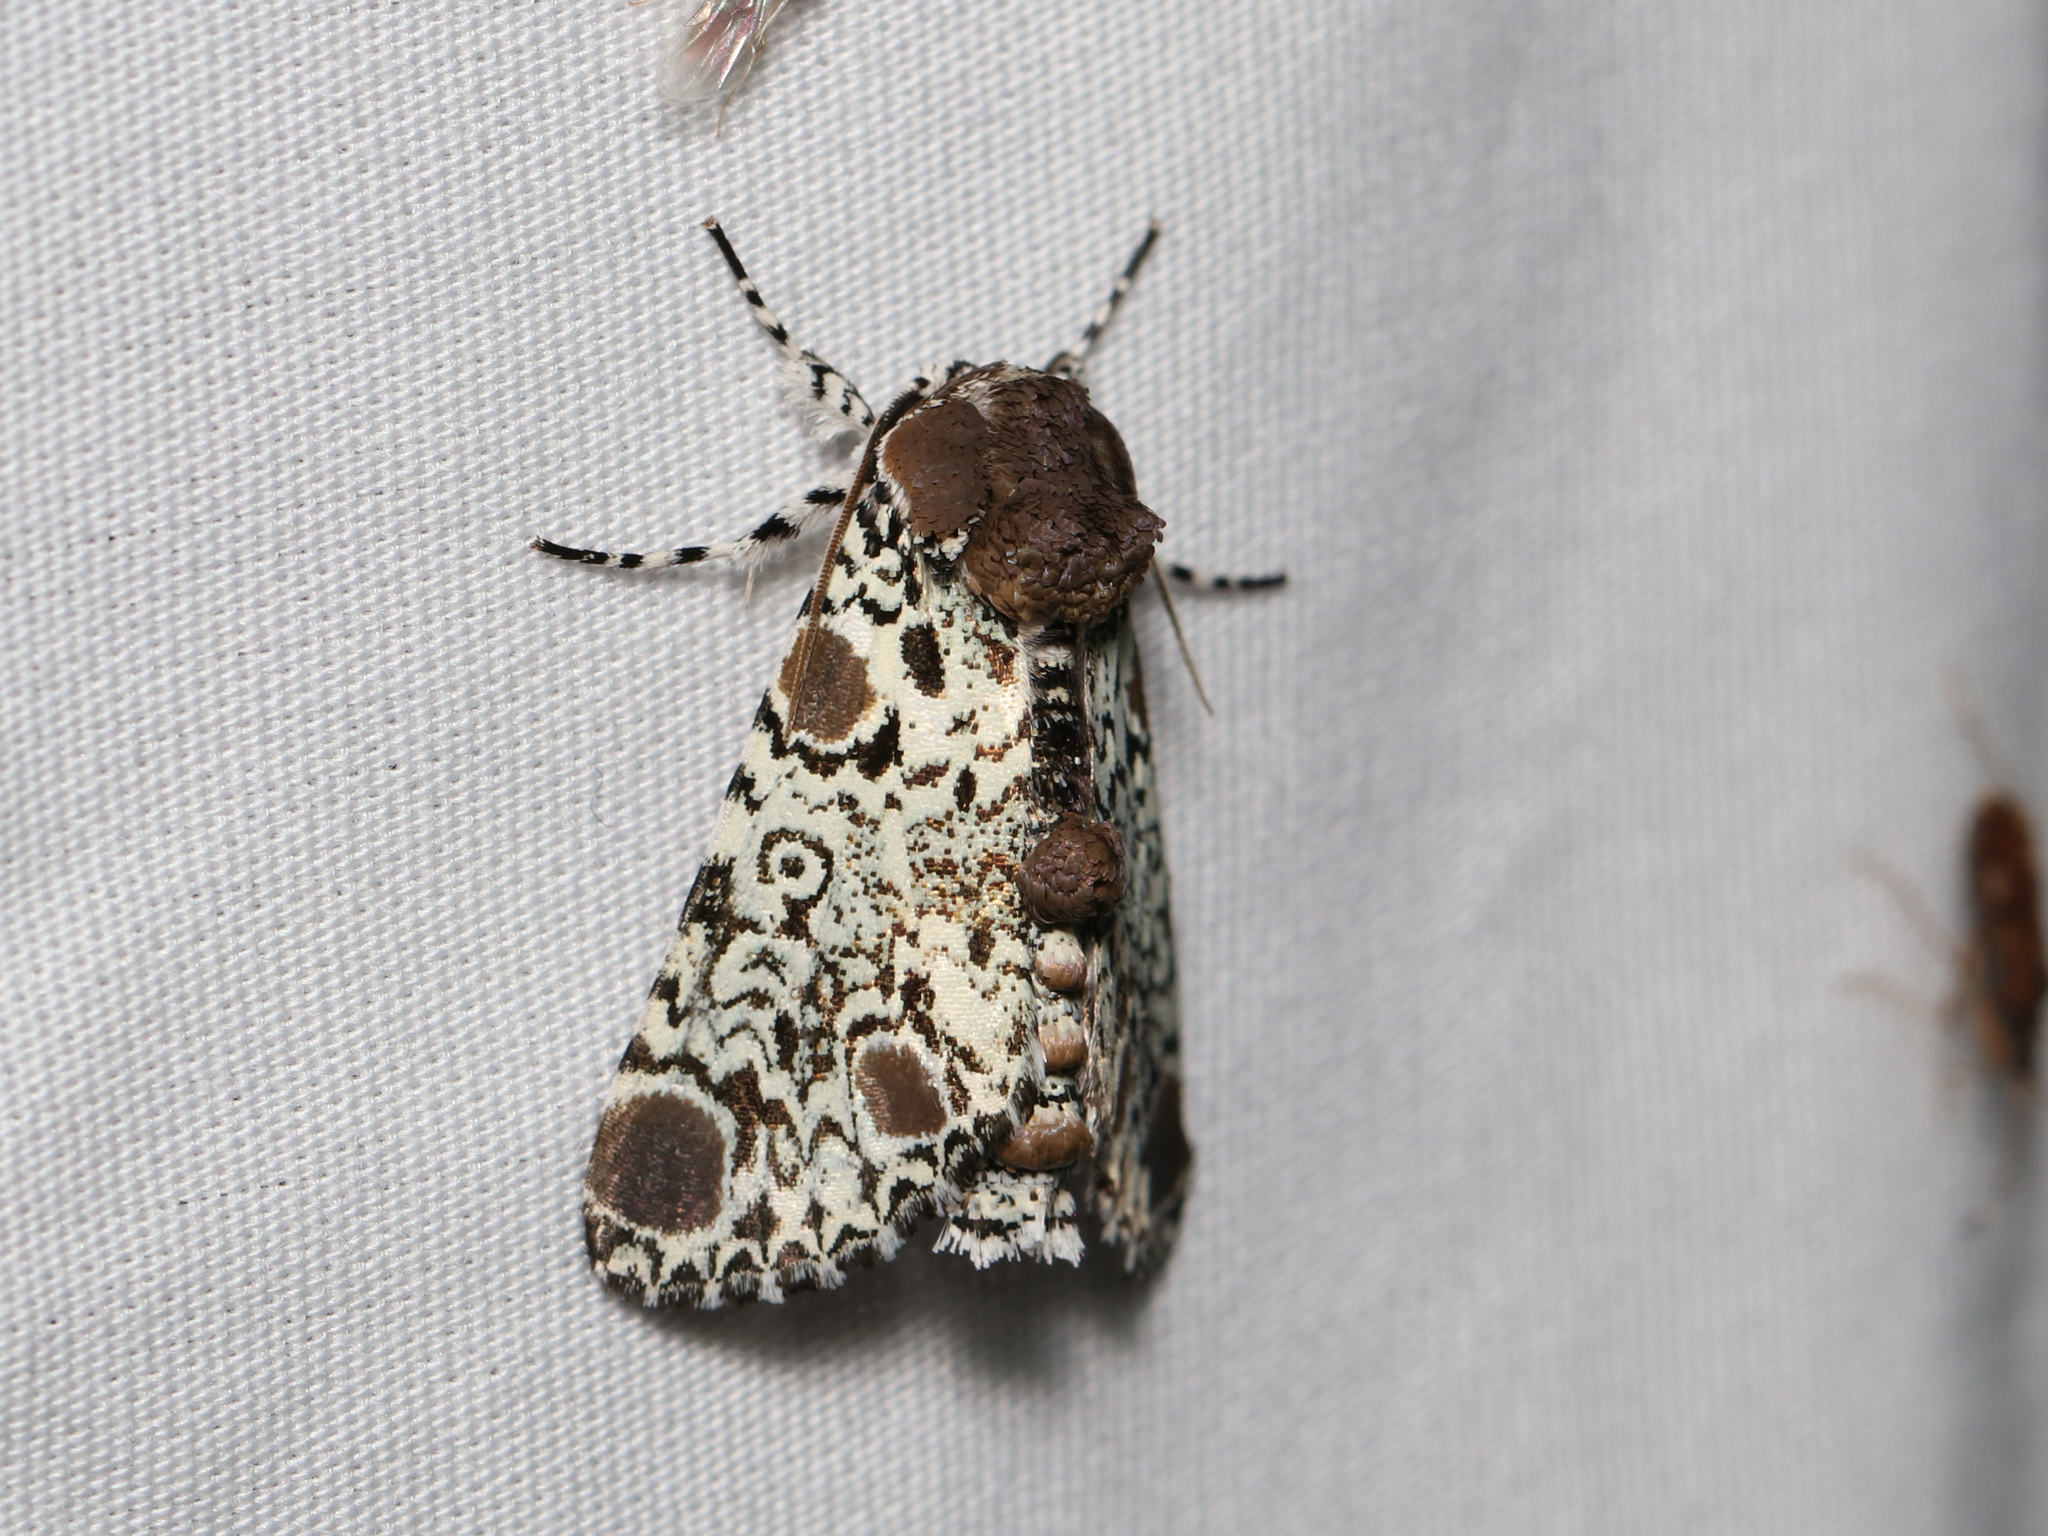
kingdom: Animalia
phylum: Arthropoda
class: Insecta
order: Lepidoptera
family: Noctuidae
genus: Harrisimemna
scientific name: Harrisimemna trisignata
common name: Harris threespot
